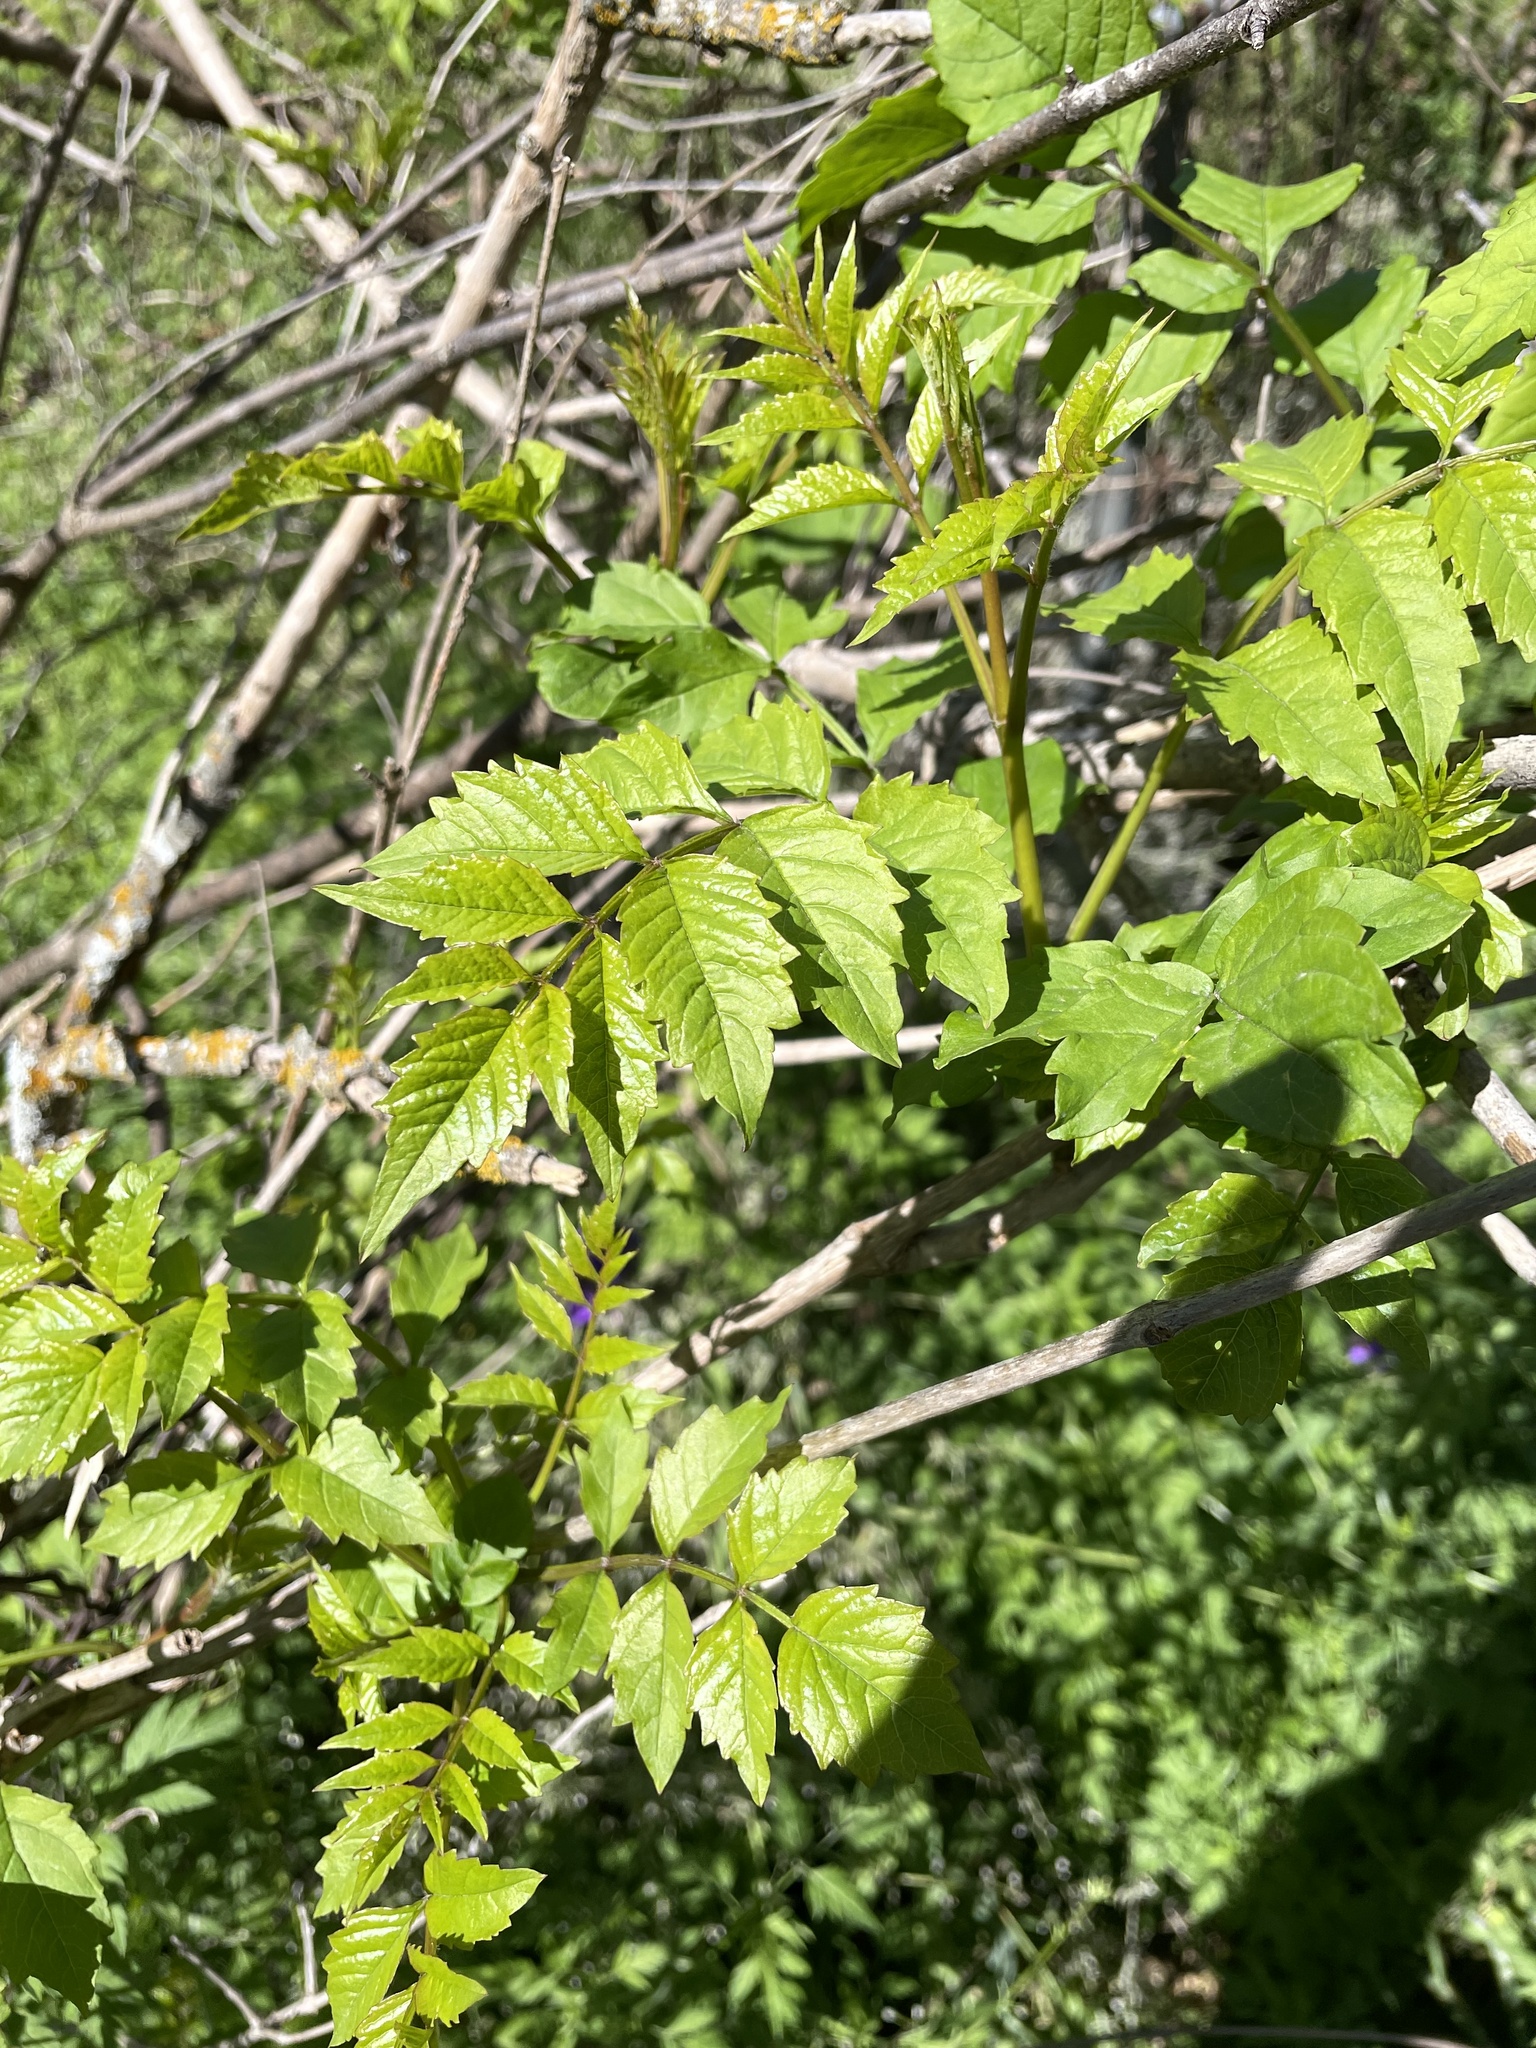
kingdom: Plantae
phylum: Tracheophyta
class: Magnoliopsida
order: Lamiales
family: Bignoniaceae
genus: Campsis
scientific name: Campsis radicans
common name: Trumpet-creeper
